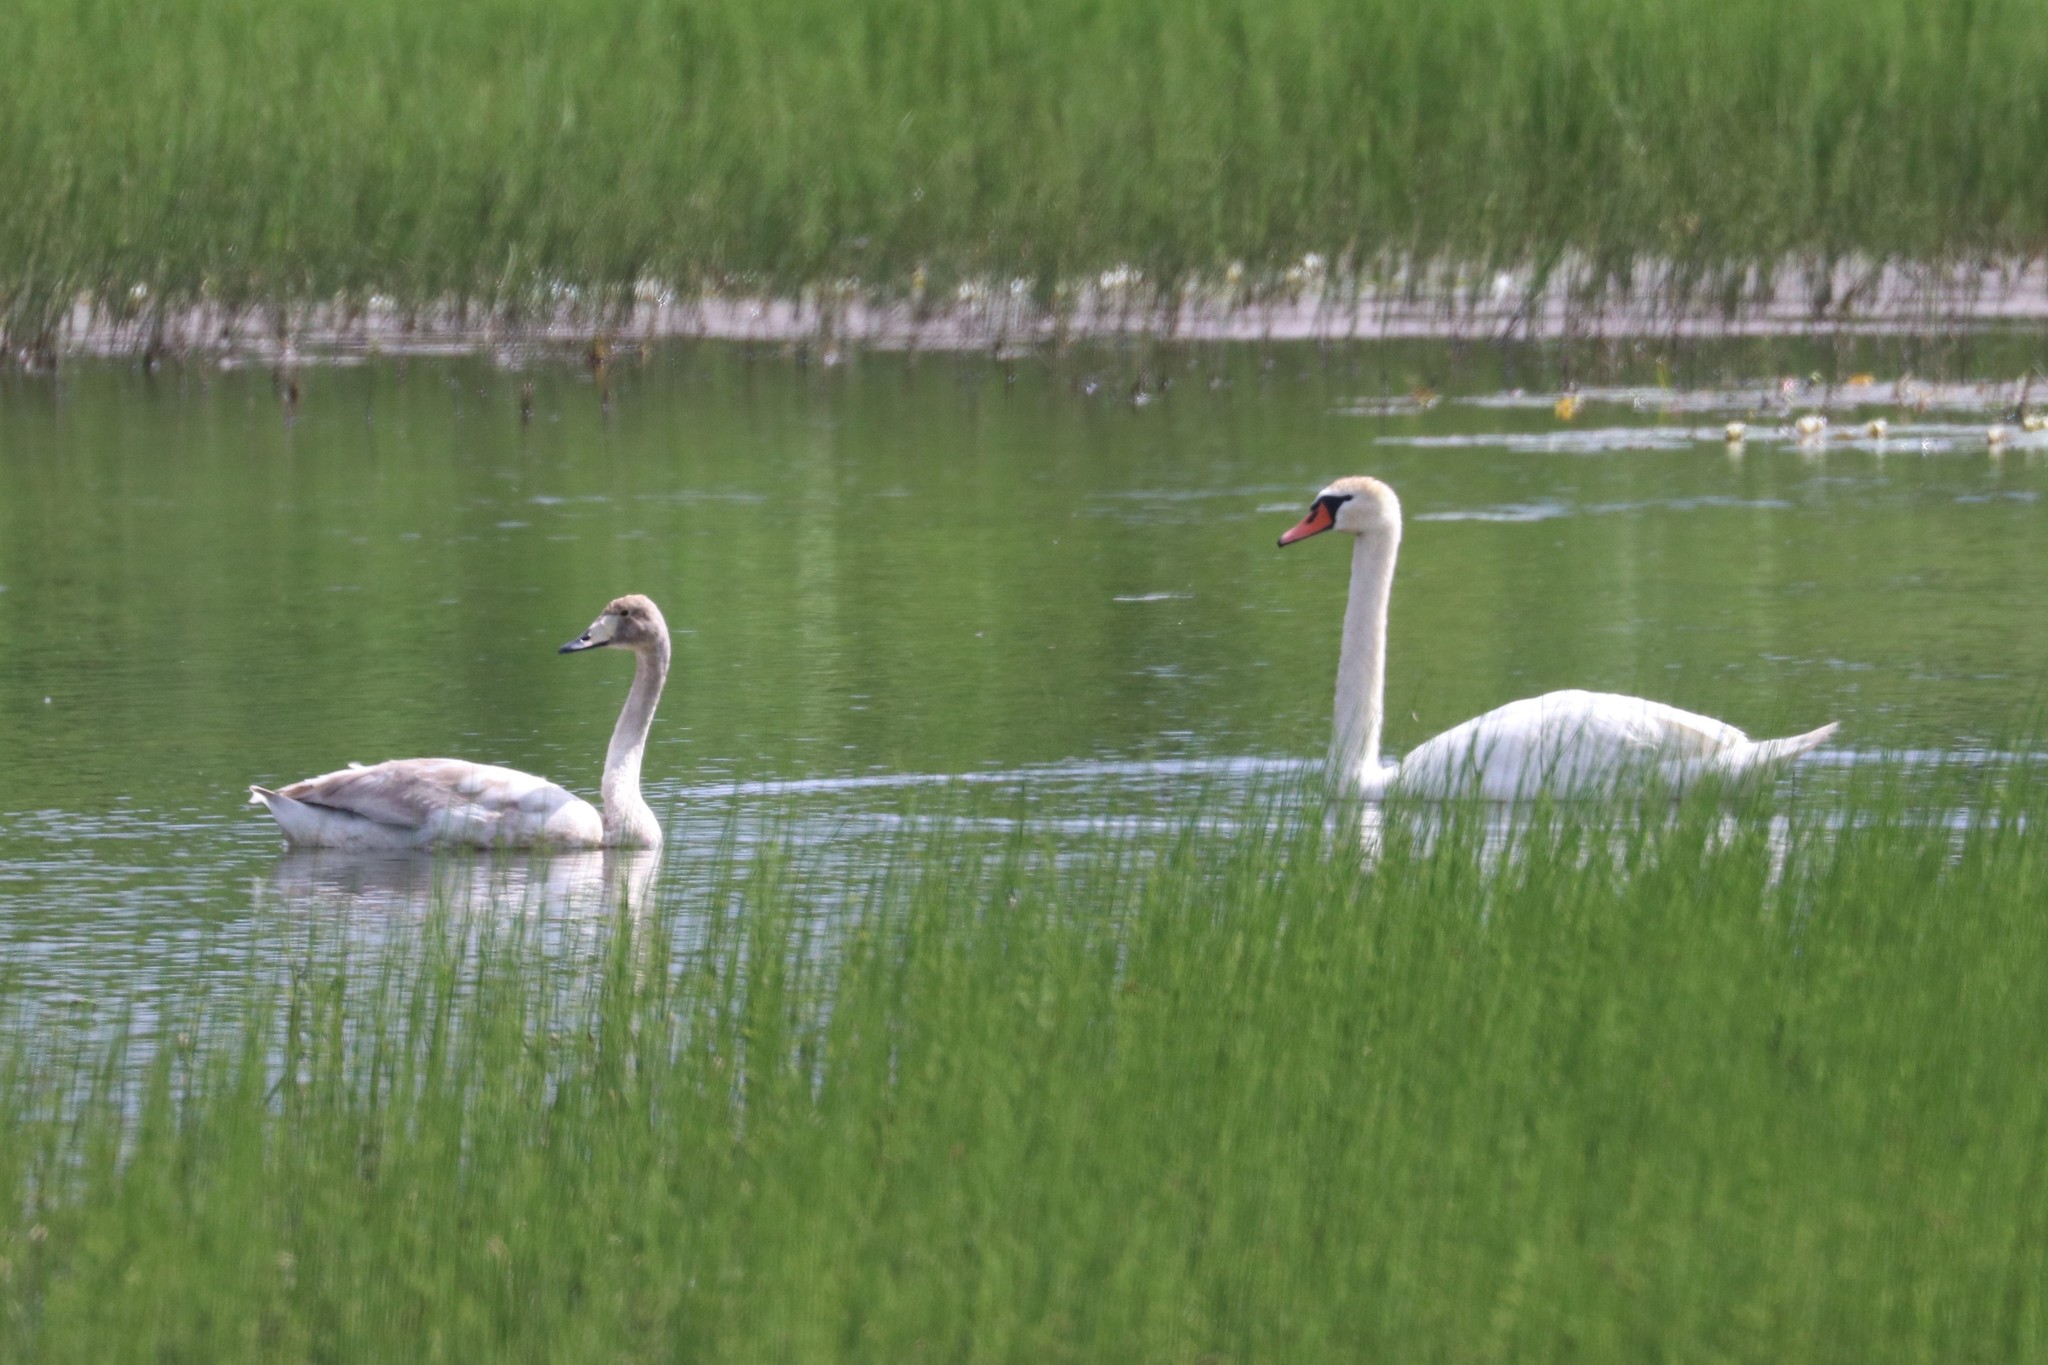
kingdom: Animalia
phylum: Chordata
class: Aves
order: Anseriformes
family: Anatidae
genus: Cygnus
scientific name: Cygnus cygnus
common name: Whooper swan
